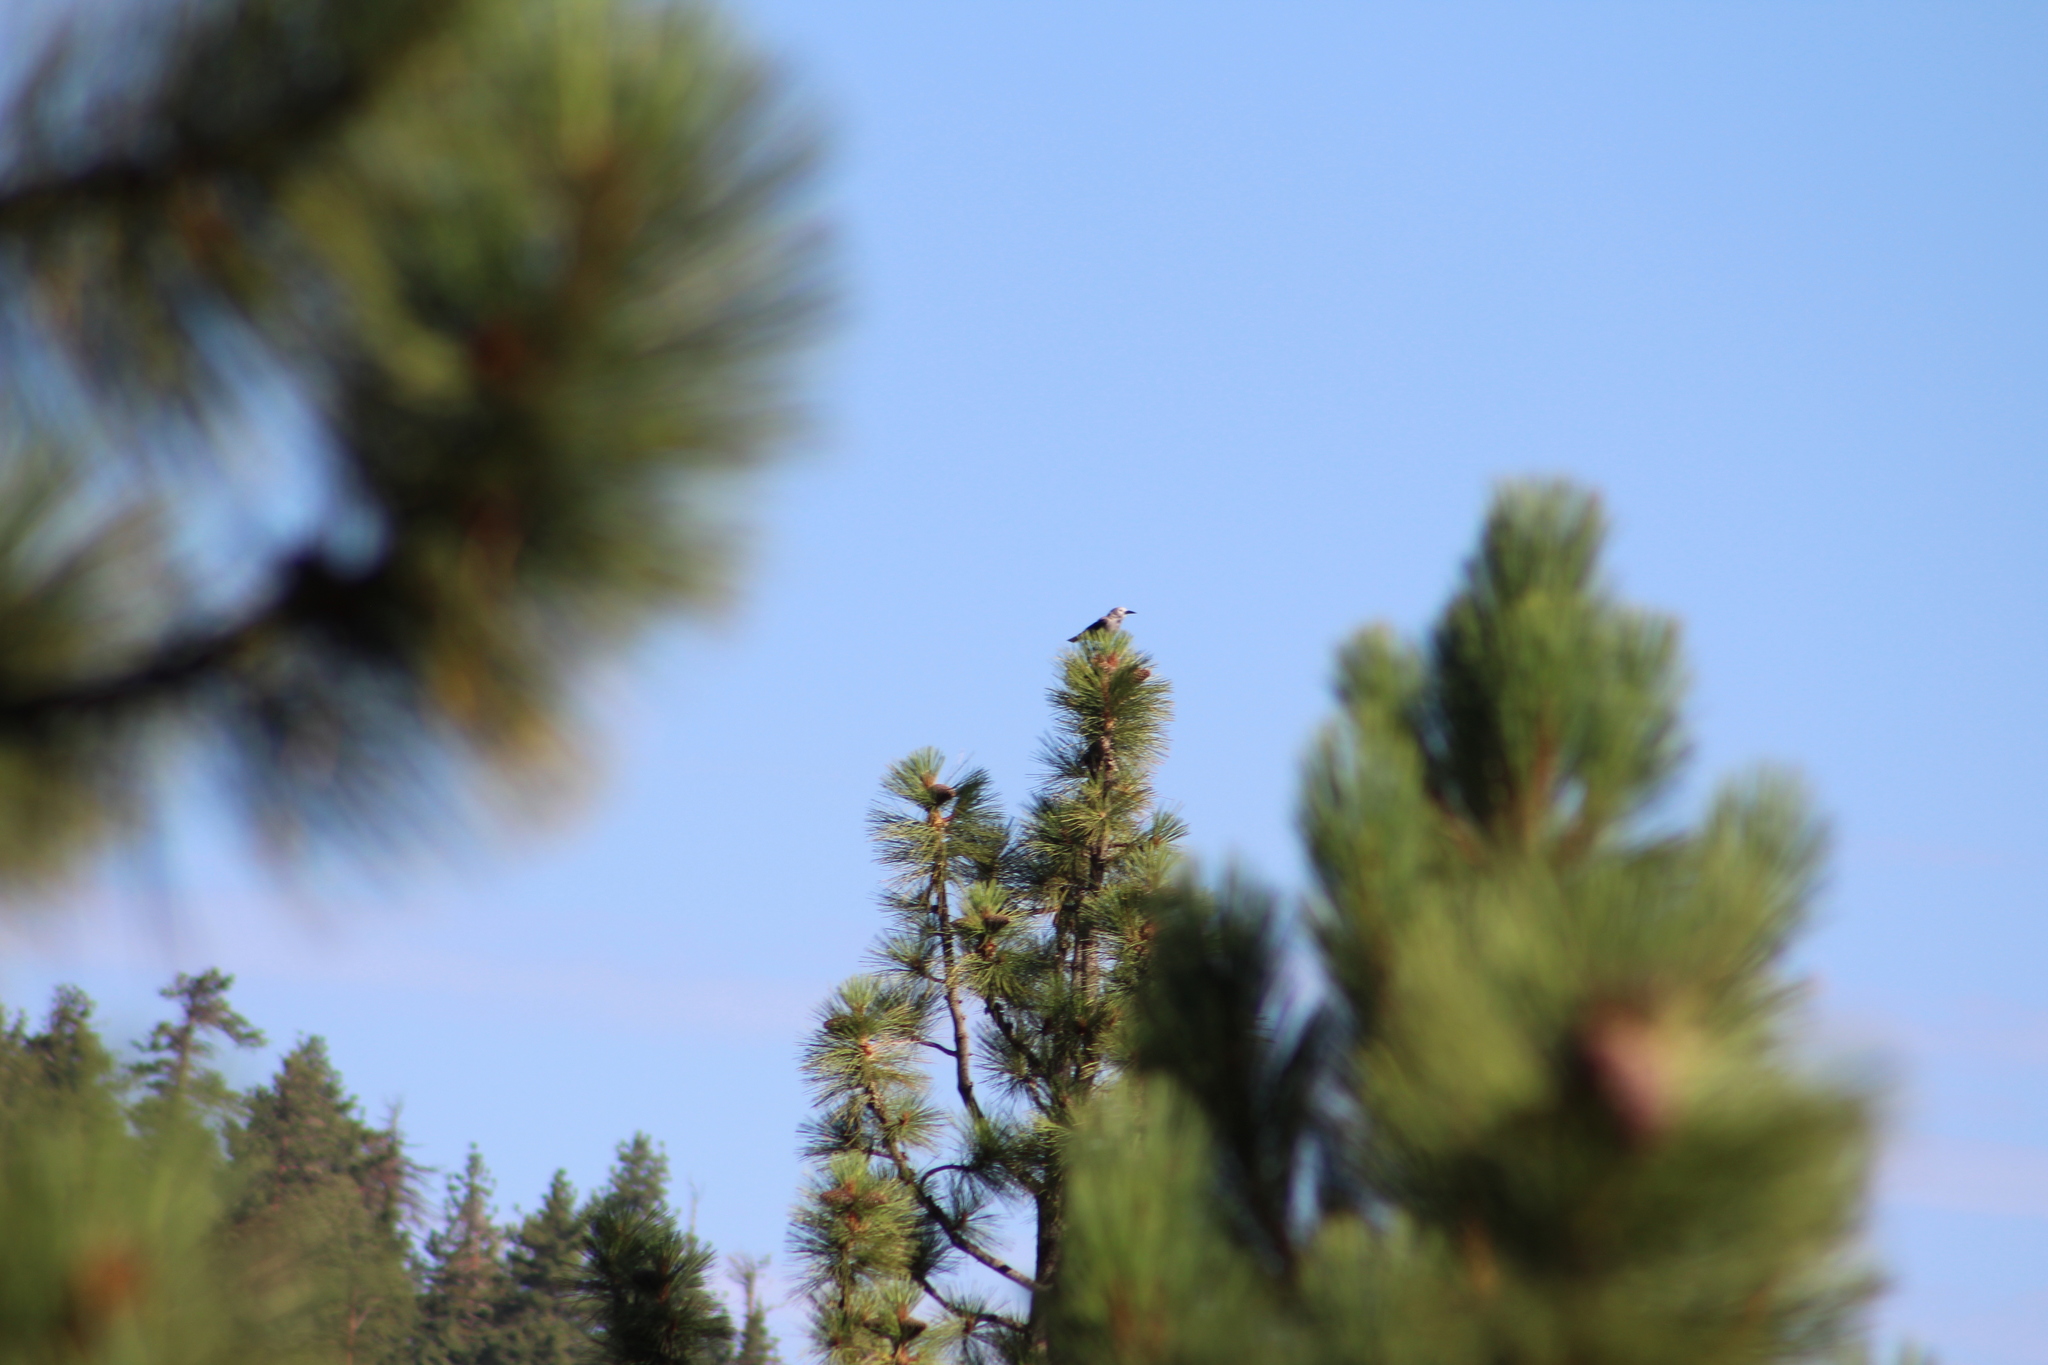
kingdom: Animalia
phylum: Chordata
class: Aves
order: Passeriformes
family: Corvidae
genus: Nucifraga
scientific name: Nucifraga columbiana
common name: Clark's nutcracker
